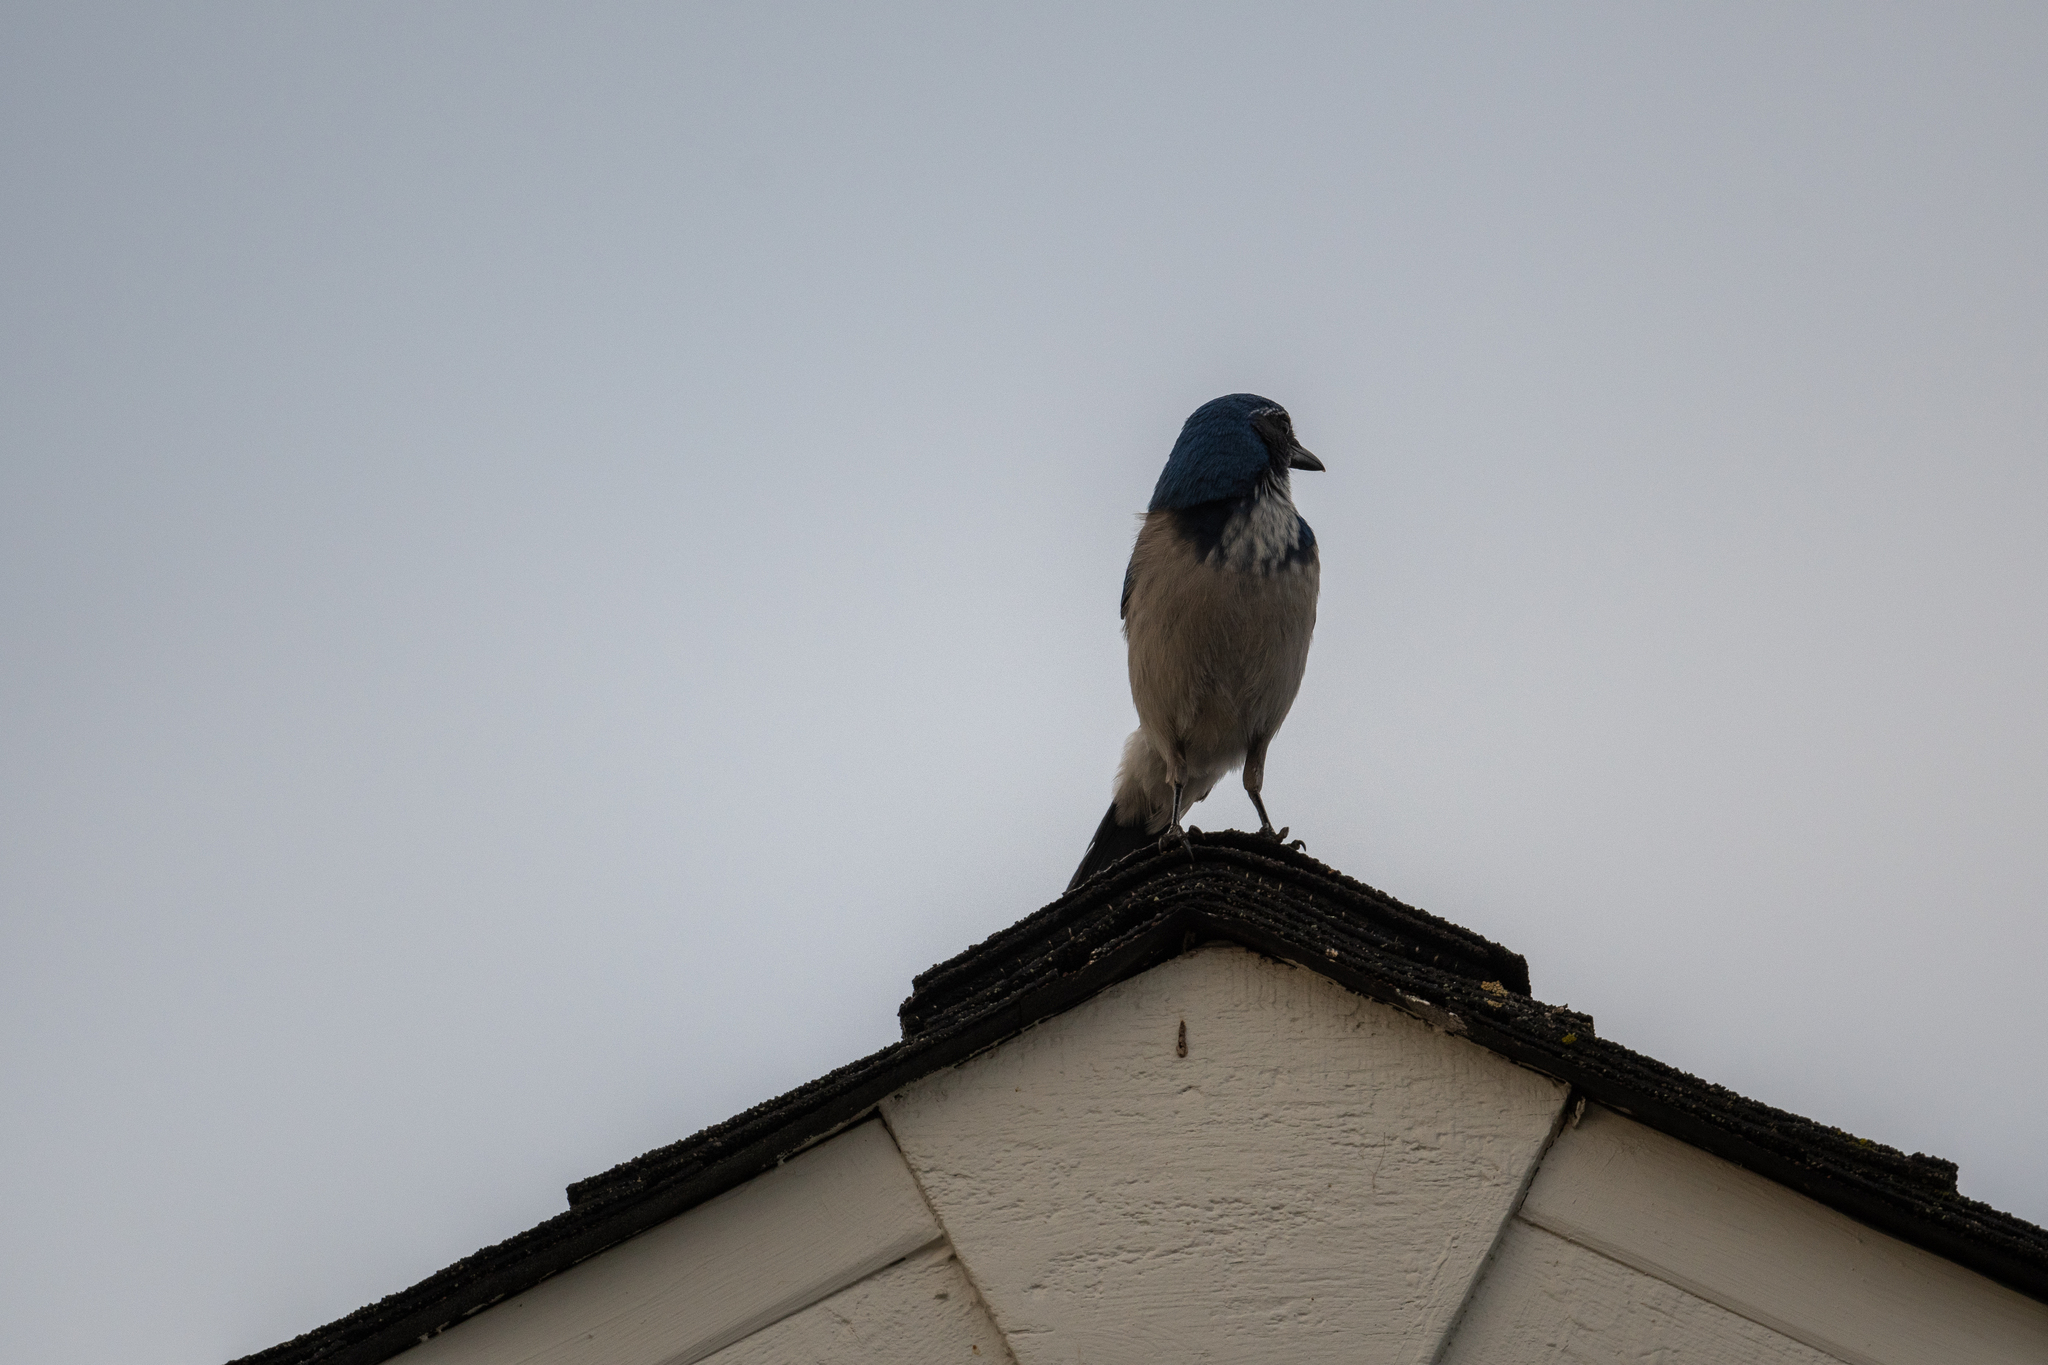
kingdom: Animalia
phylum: Chordata
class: Aves
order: Passeriformes
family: Corvidae
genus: Aphelocoma
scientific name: Aphelocoma californica
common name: California scrub-jay
